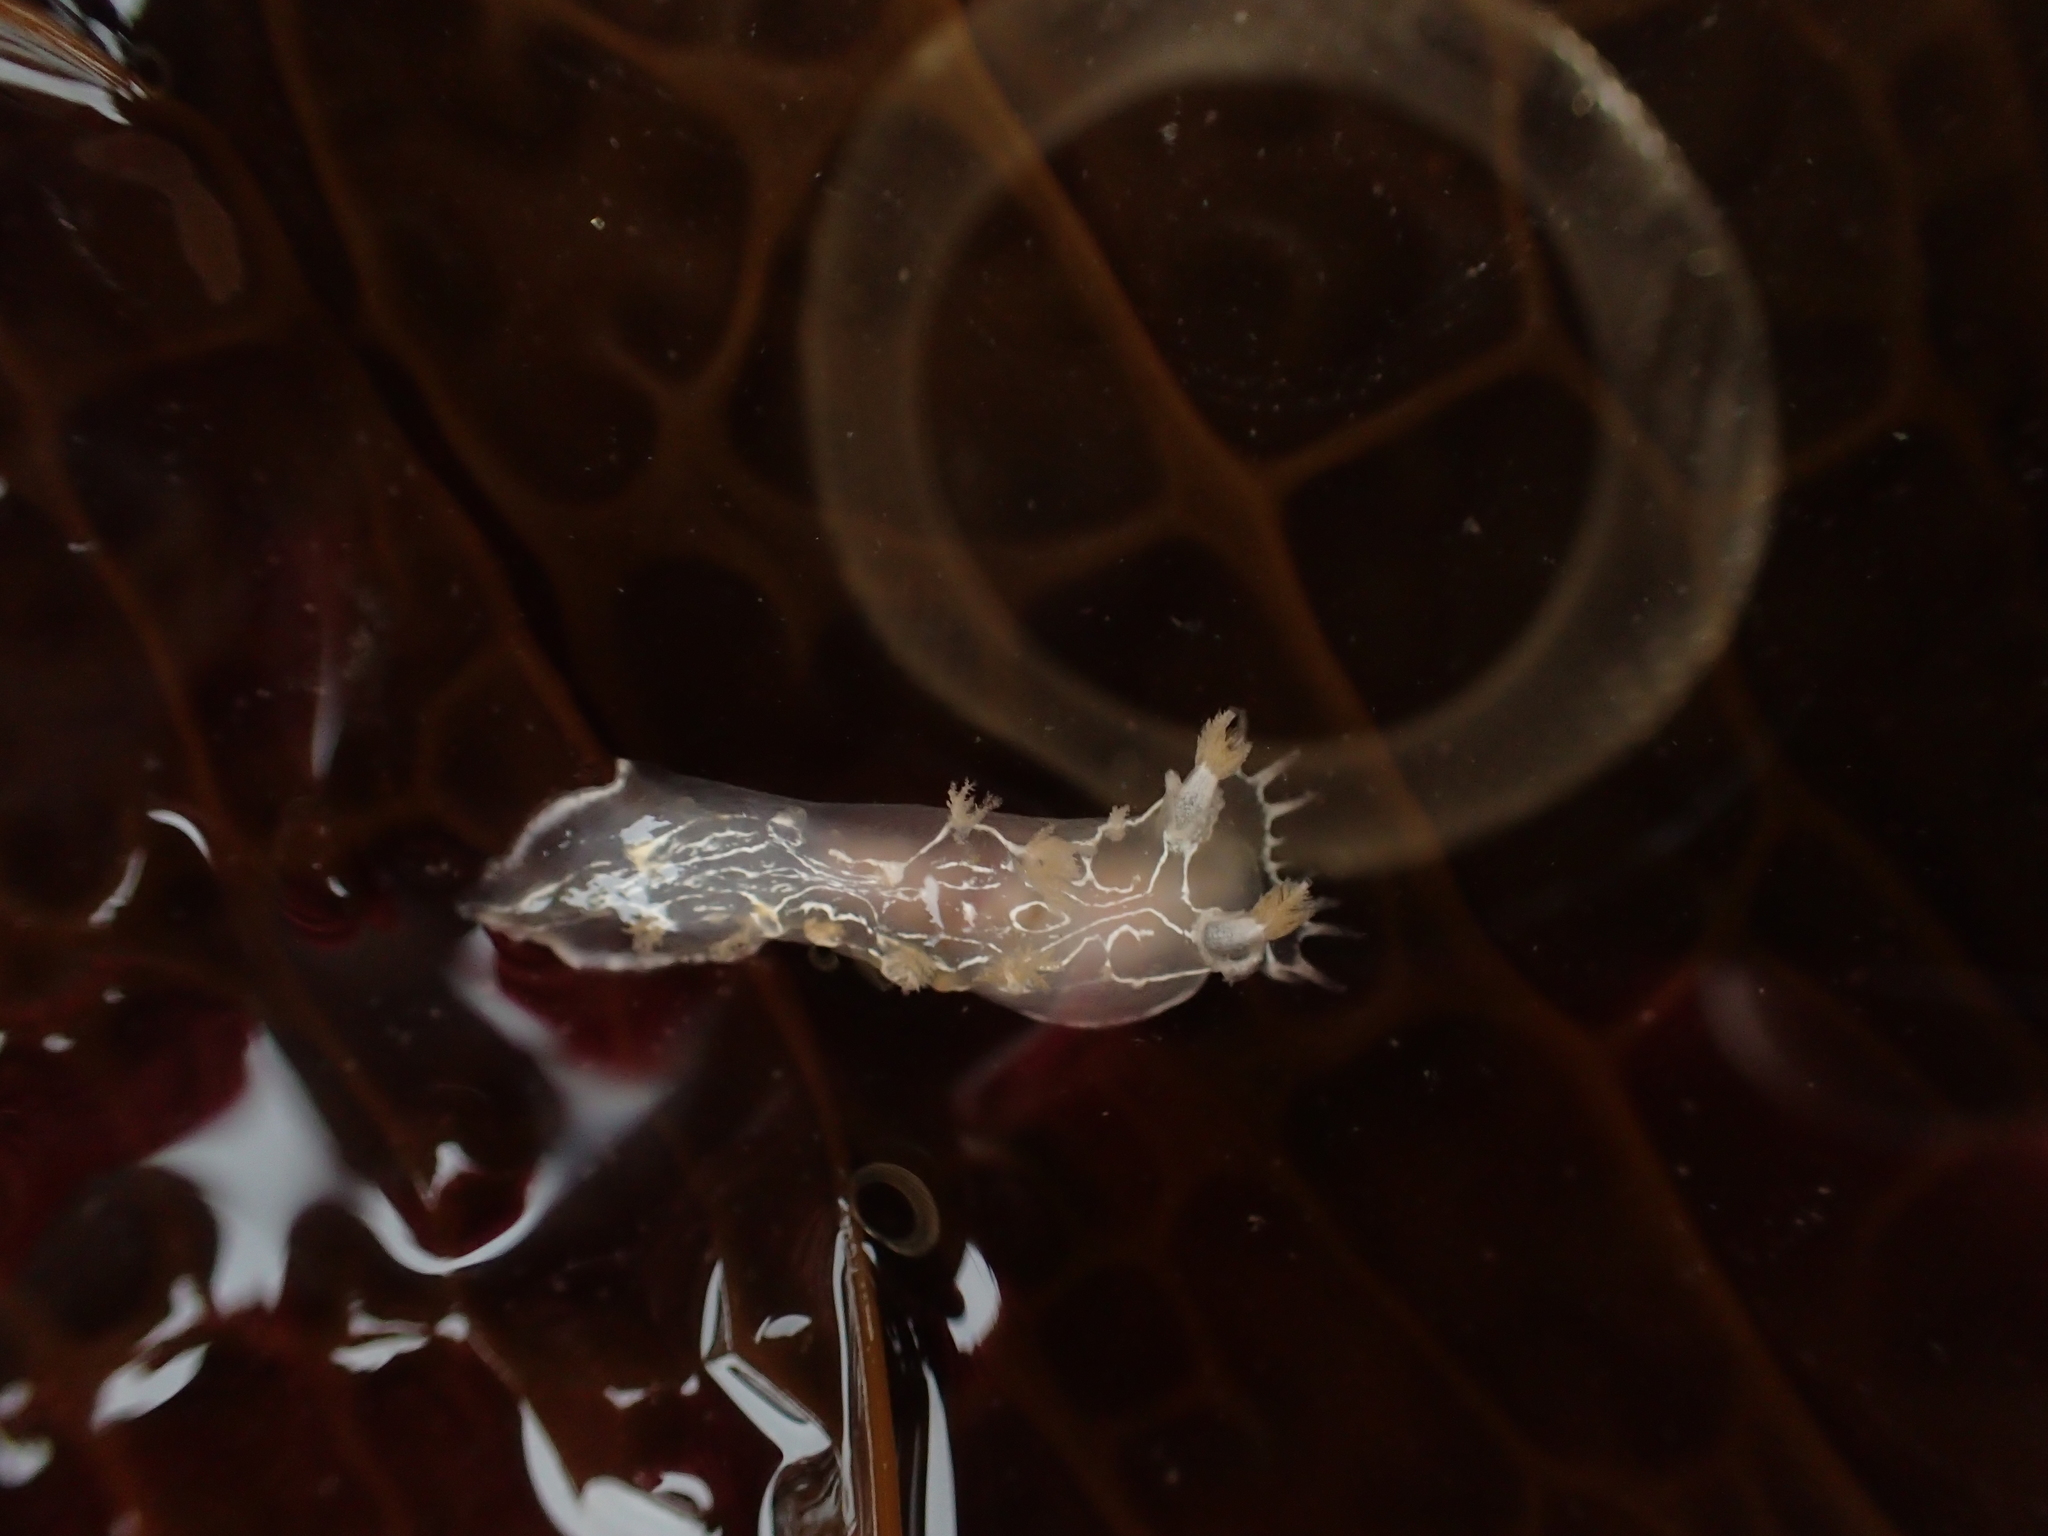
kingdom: Animalia
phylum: Mollusca
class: Gastropoda
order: Nudibranchia
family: Tritoniidae
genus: Tritonia
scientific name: Tritonia festiva
